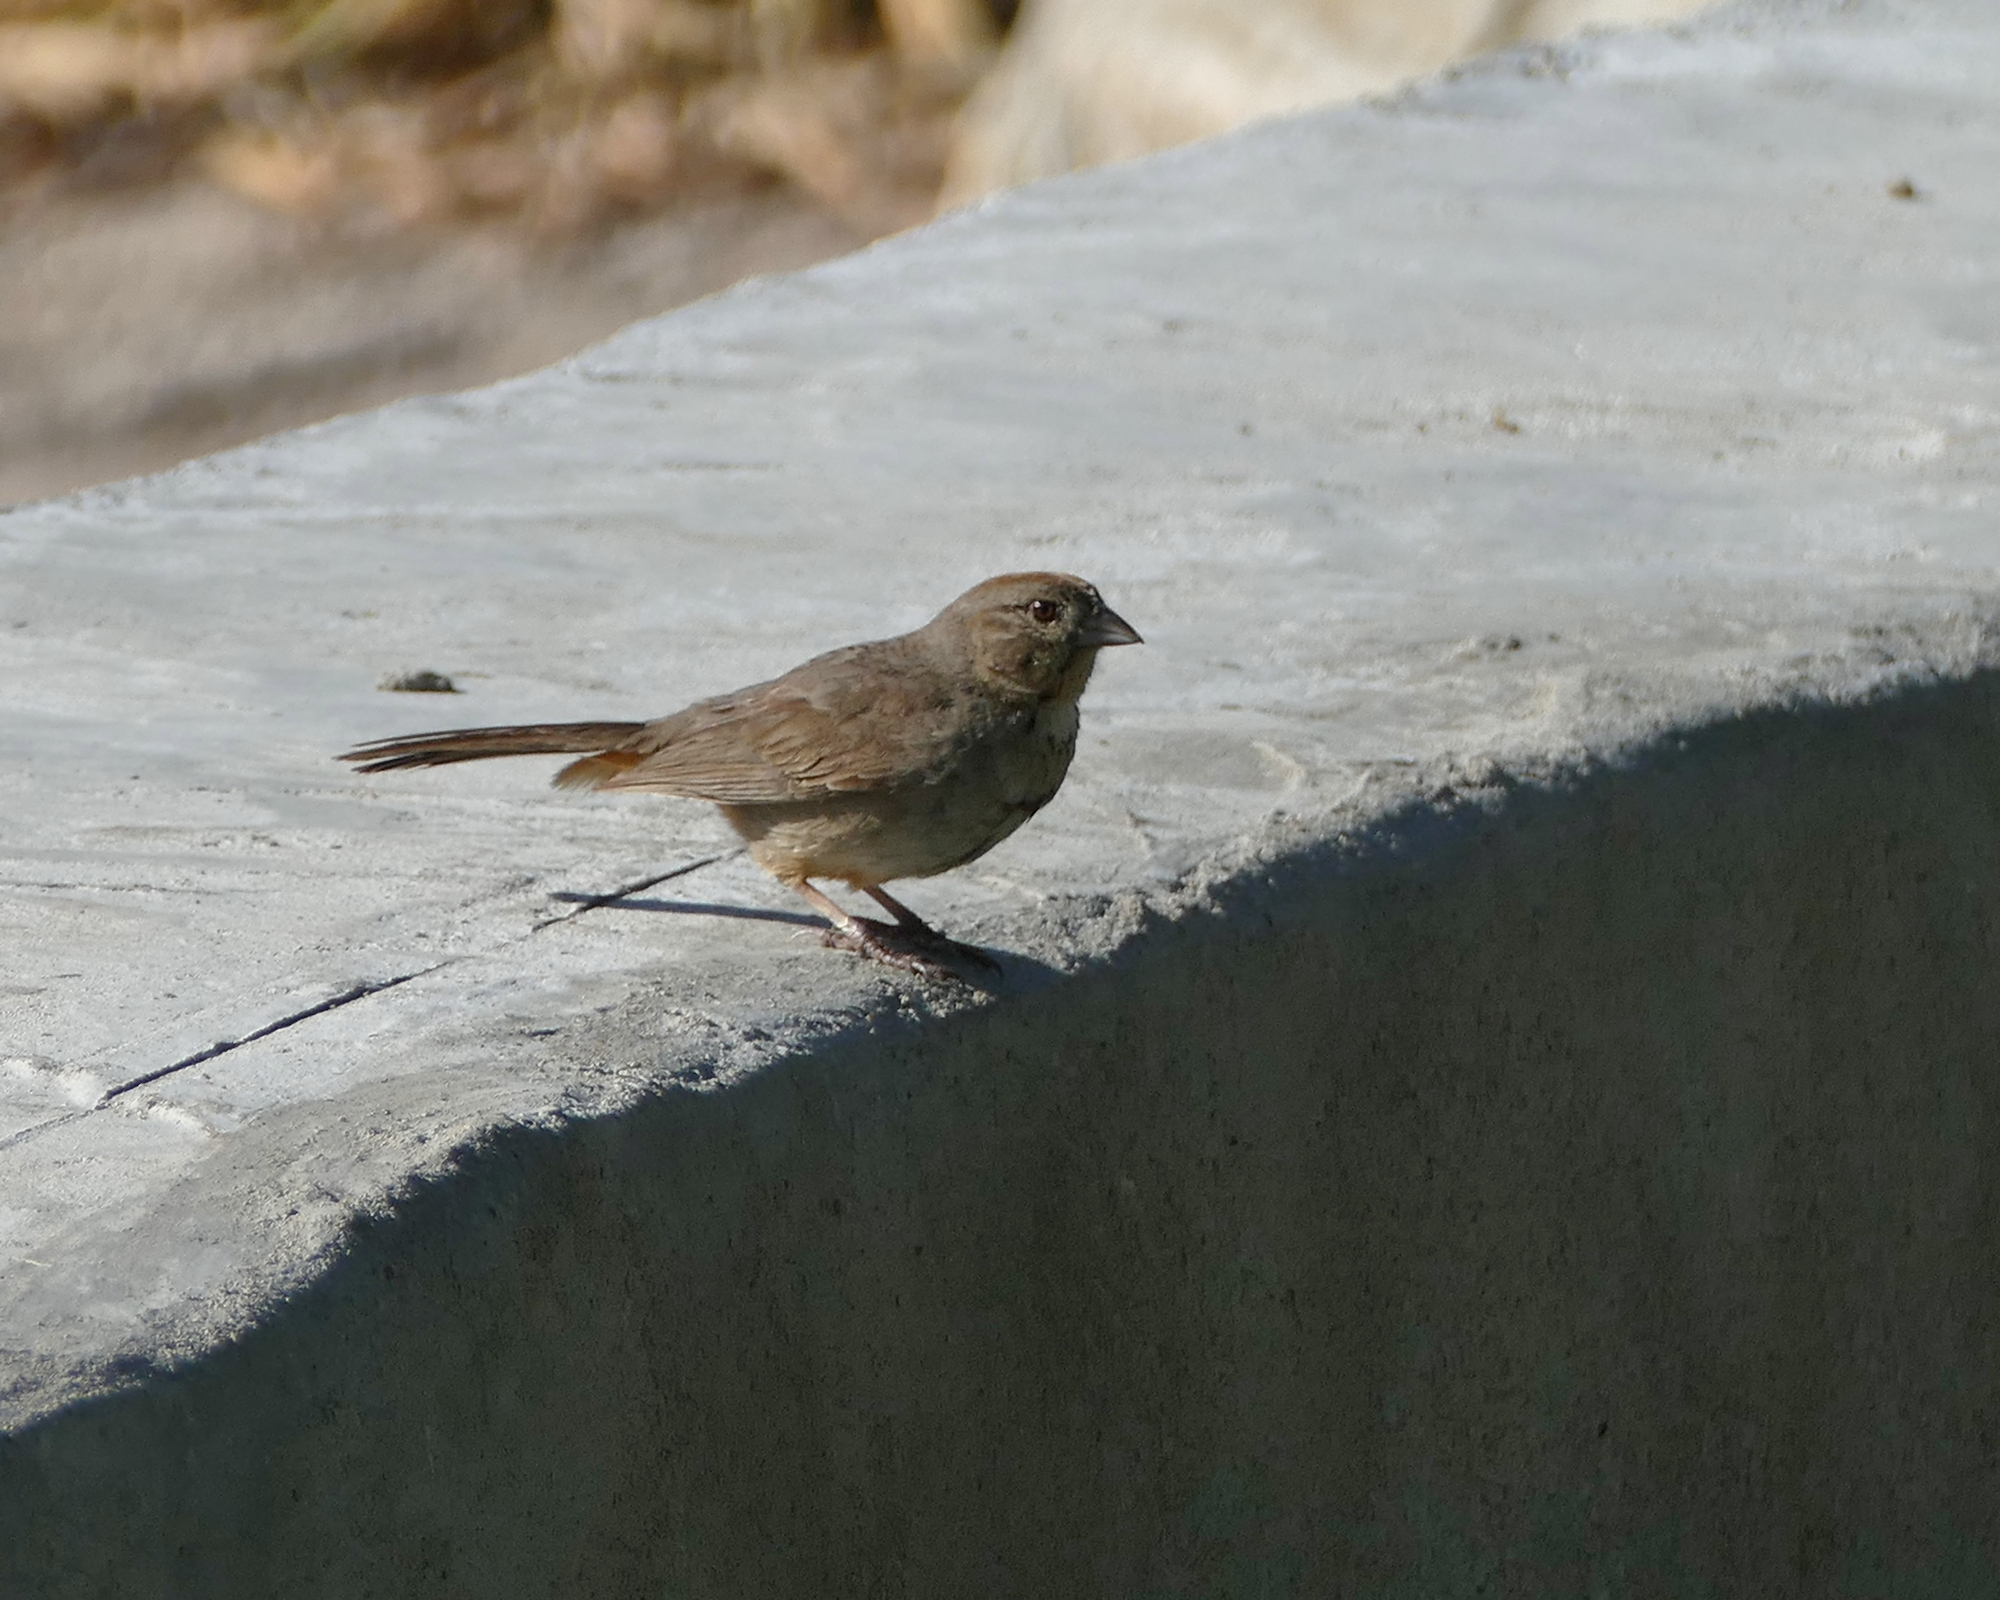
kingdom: Animalia
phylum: Chordata
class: Aves
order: Passeriformes
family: Passerellidae
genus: Melozone
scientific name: Melozone fusca
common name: Canyon towhee
